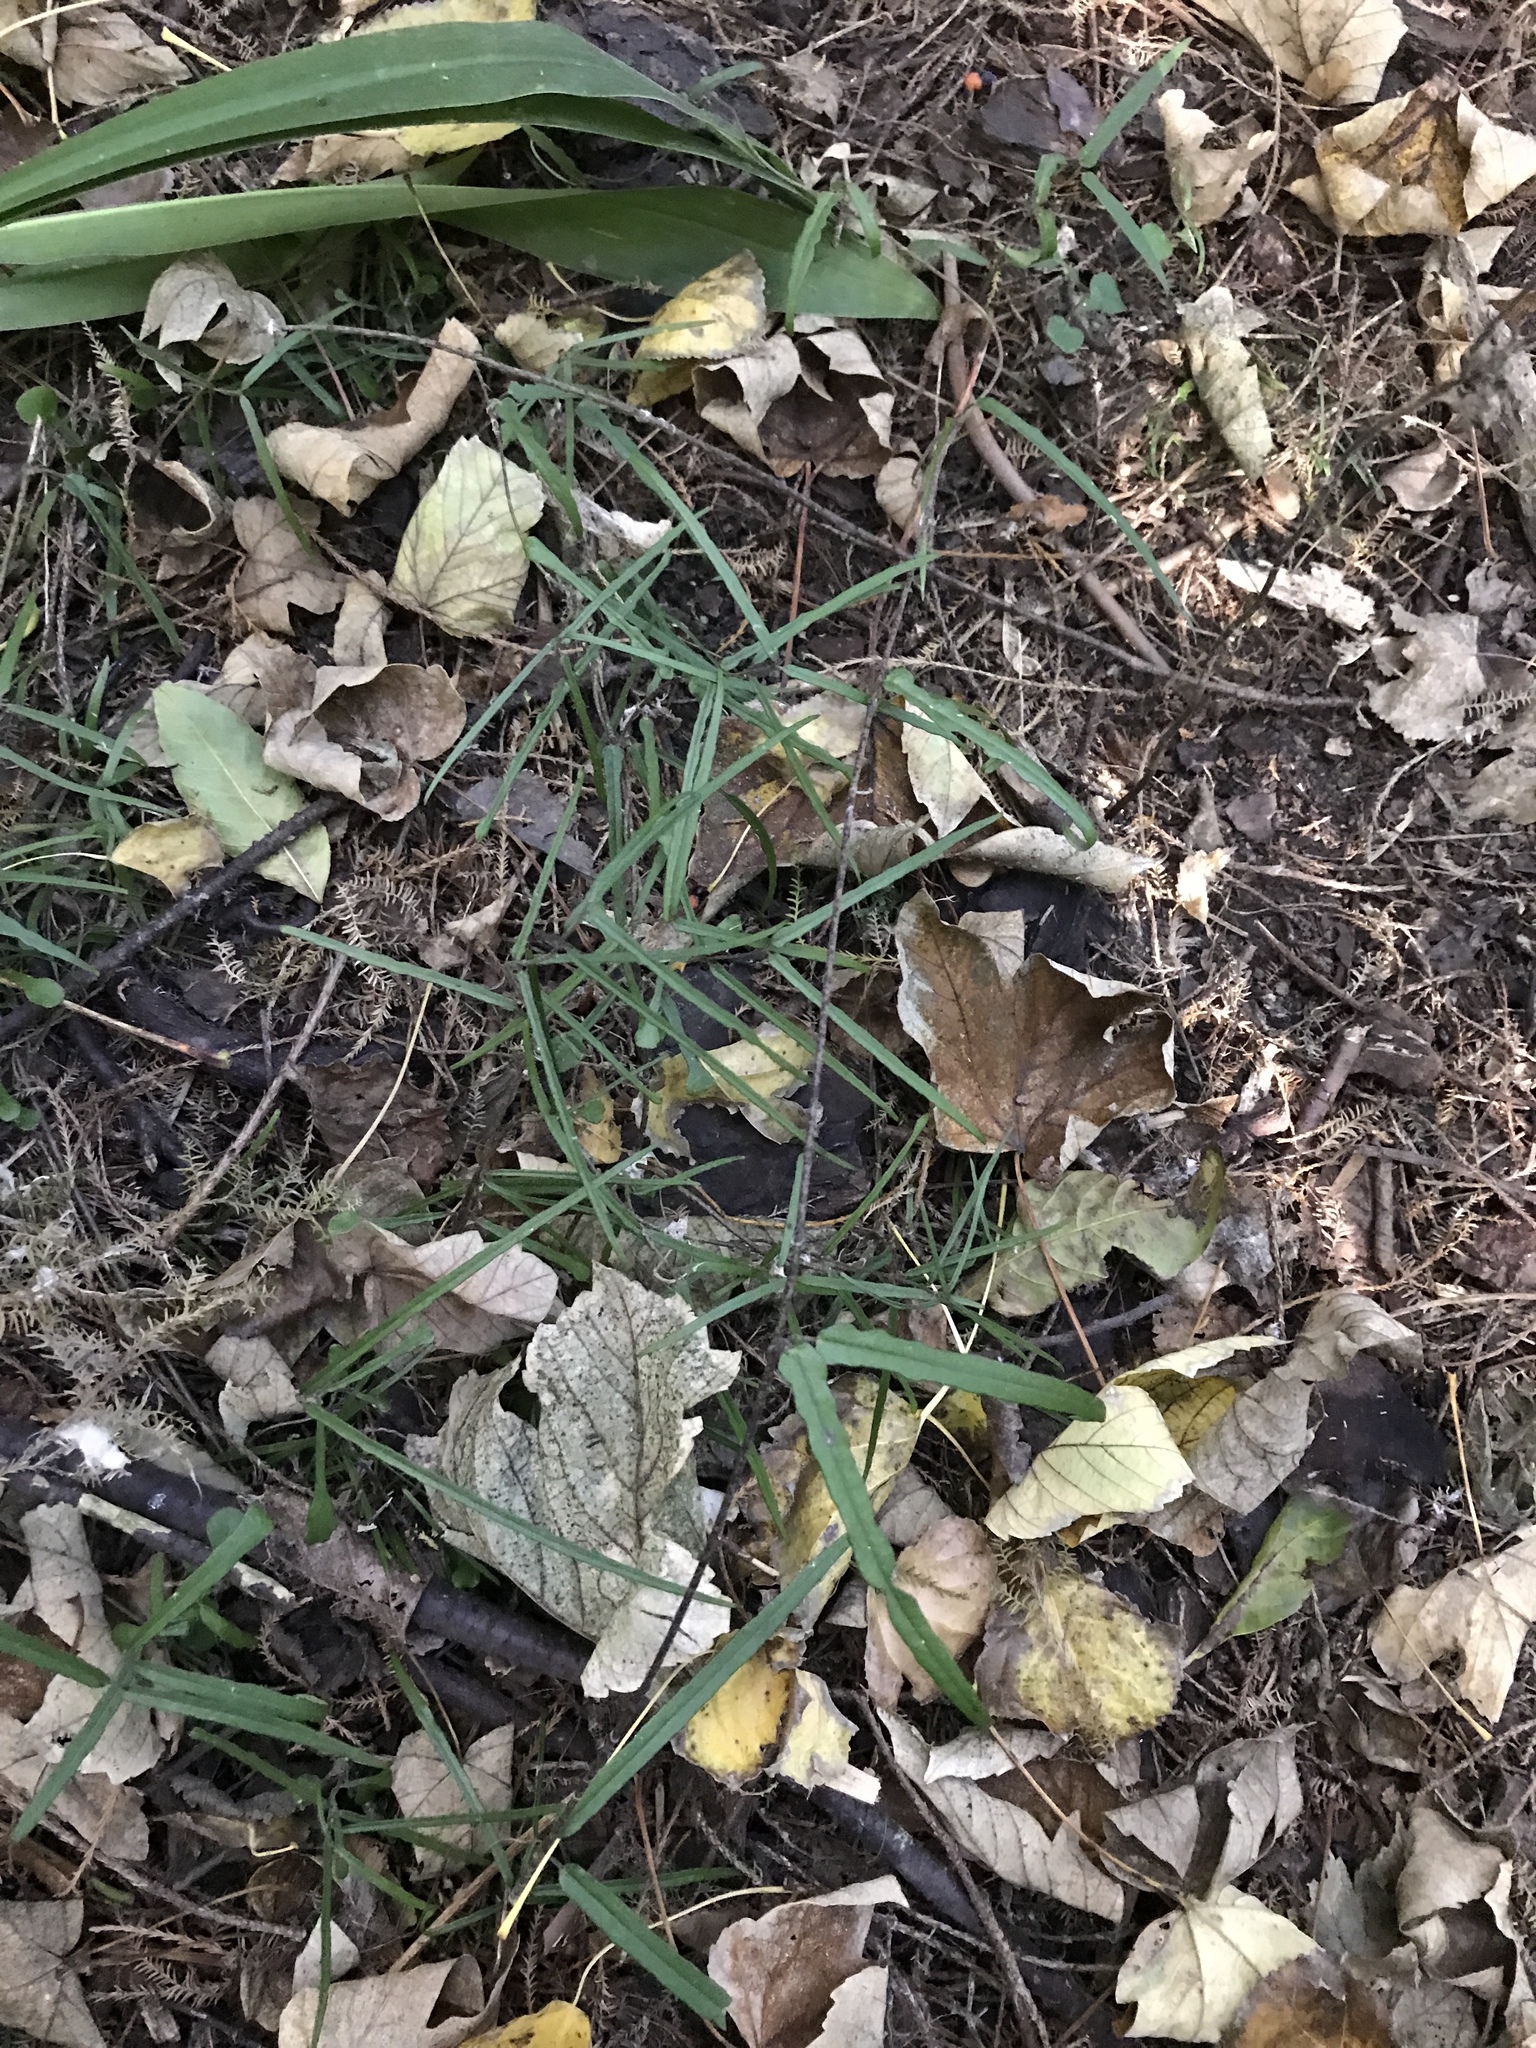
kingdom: Plantae
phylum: Tracheophyta
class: Magnoliopsida
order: Gentianales
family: Apocynaceae
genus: Parsonsia
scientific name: Parsonsia heterophylla
